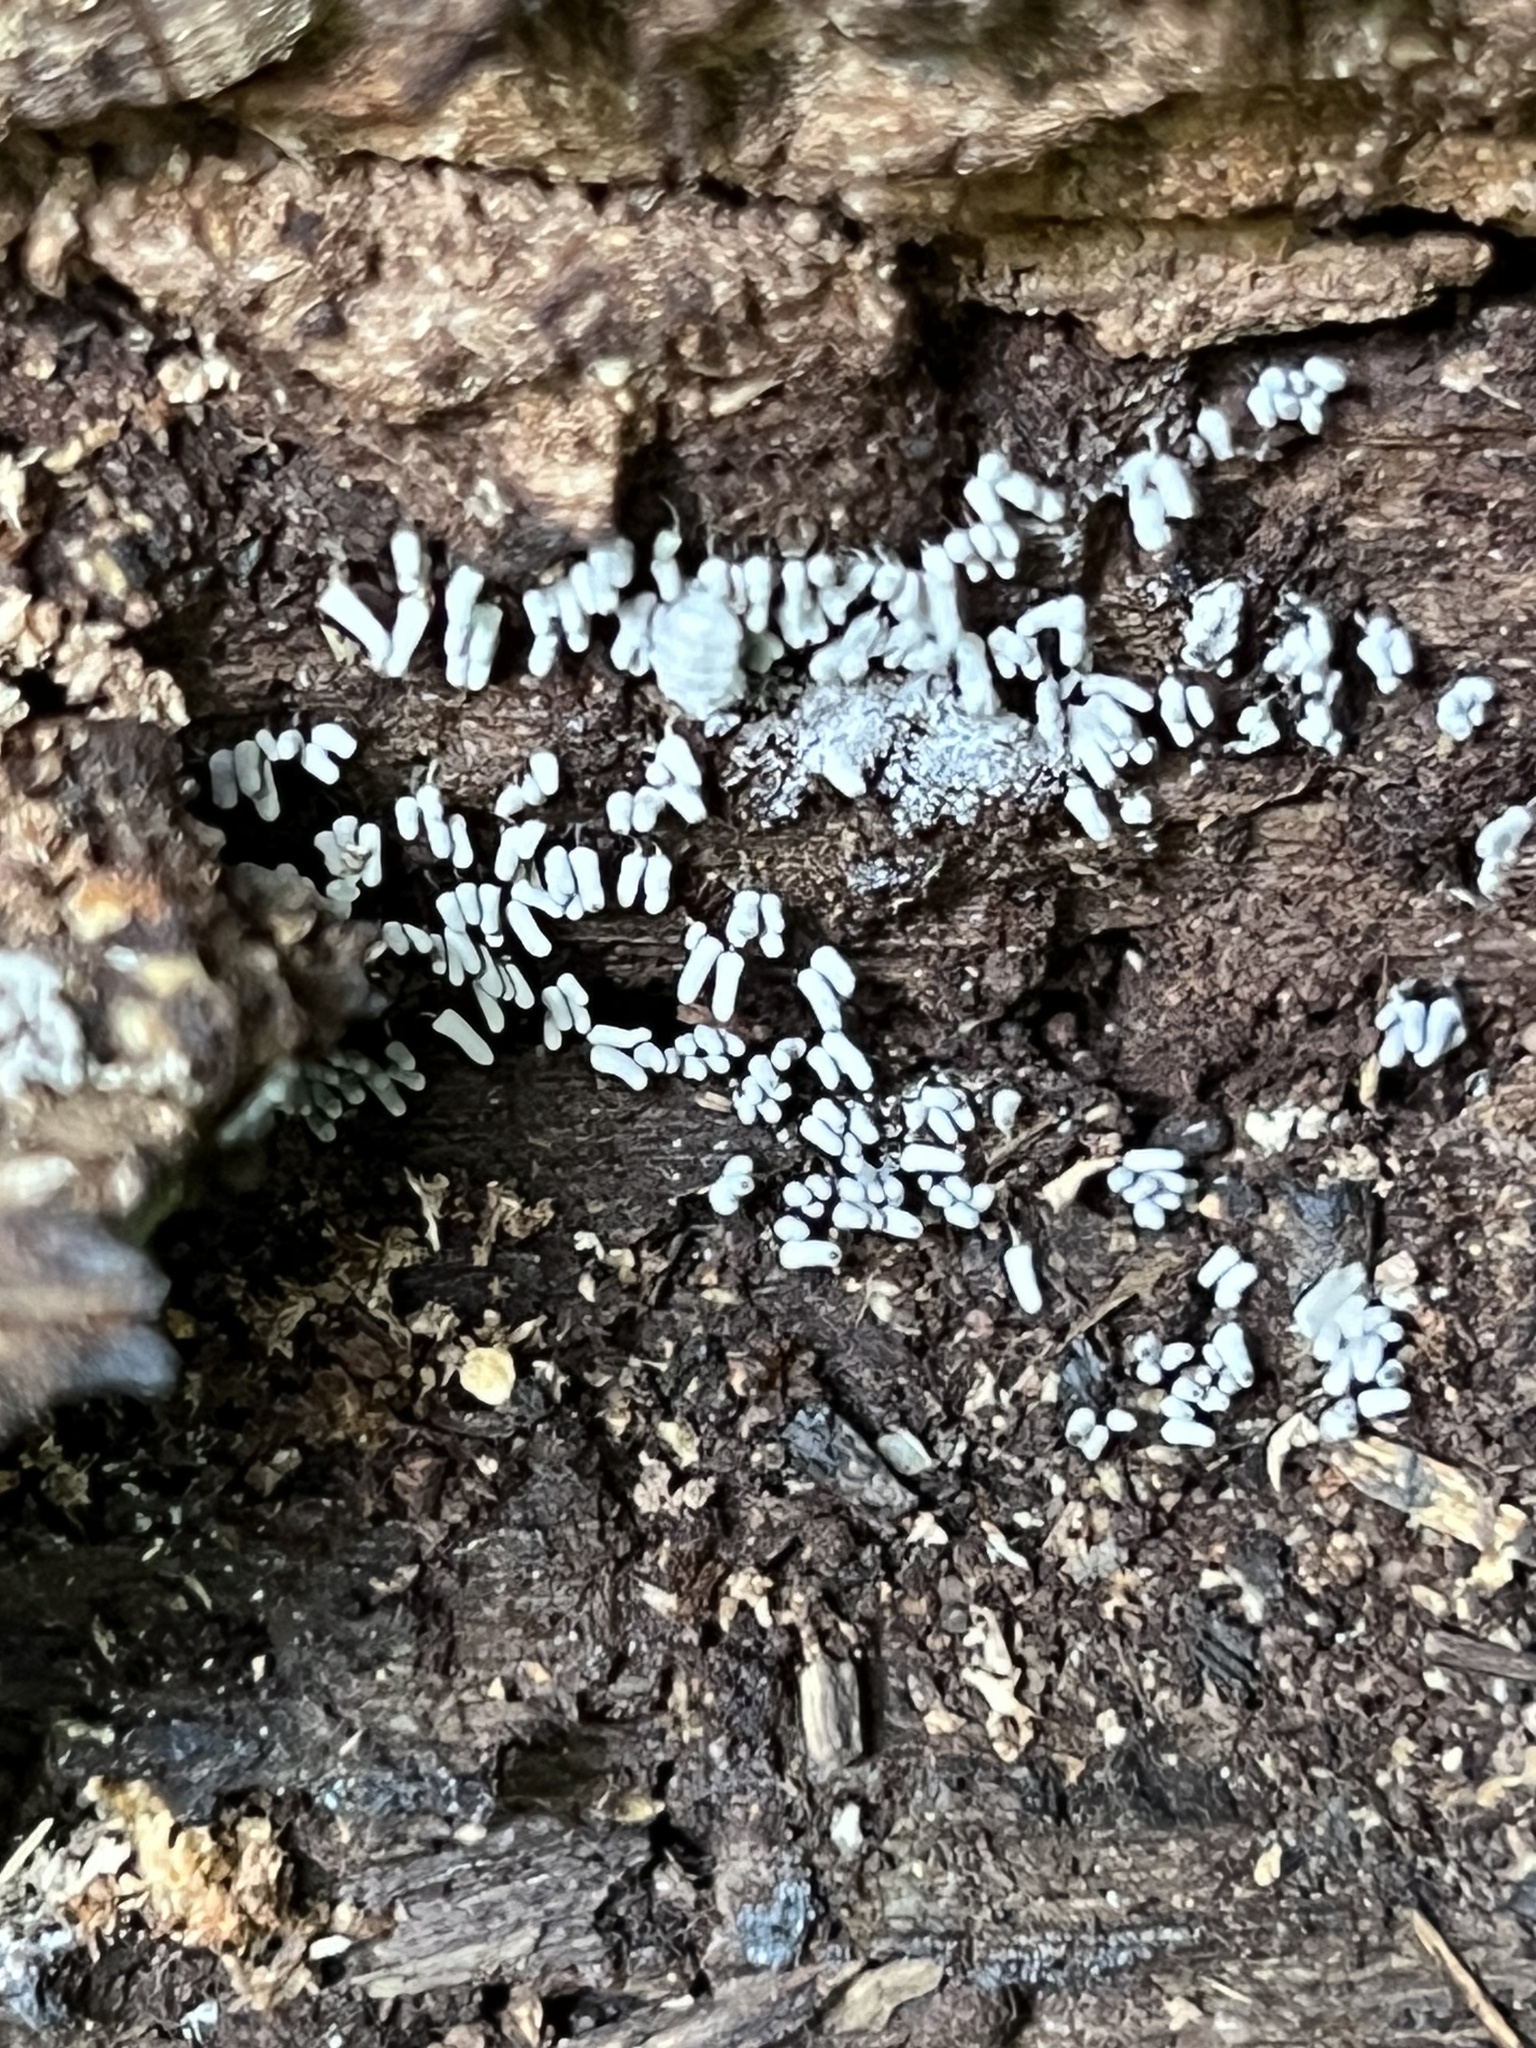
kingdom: Protozoa
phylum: Mycetozoa
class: Myxomycetes
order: Trichiales
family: Arcyriaceae
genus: Arcyria
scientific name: Arcyria cinerea
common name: White carnival candy slime mold
